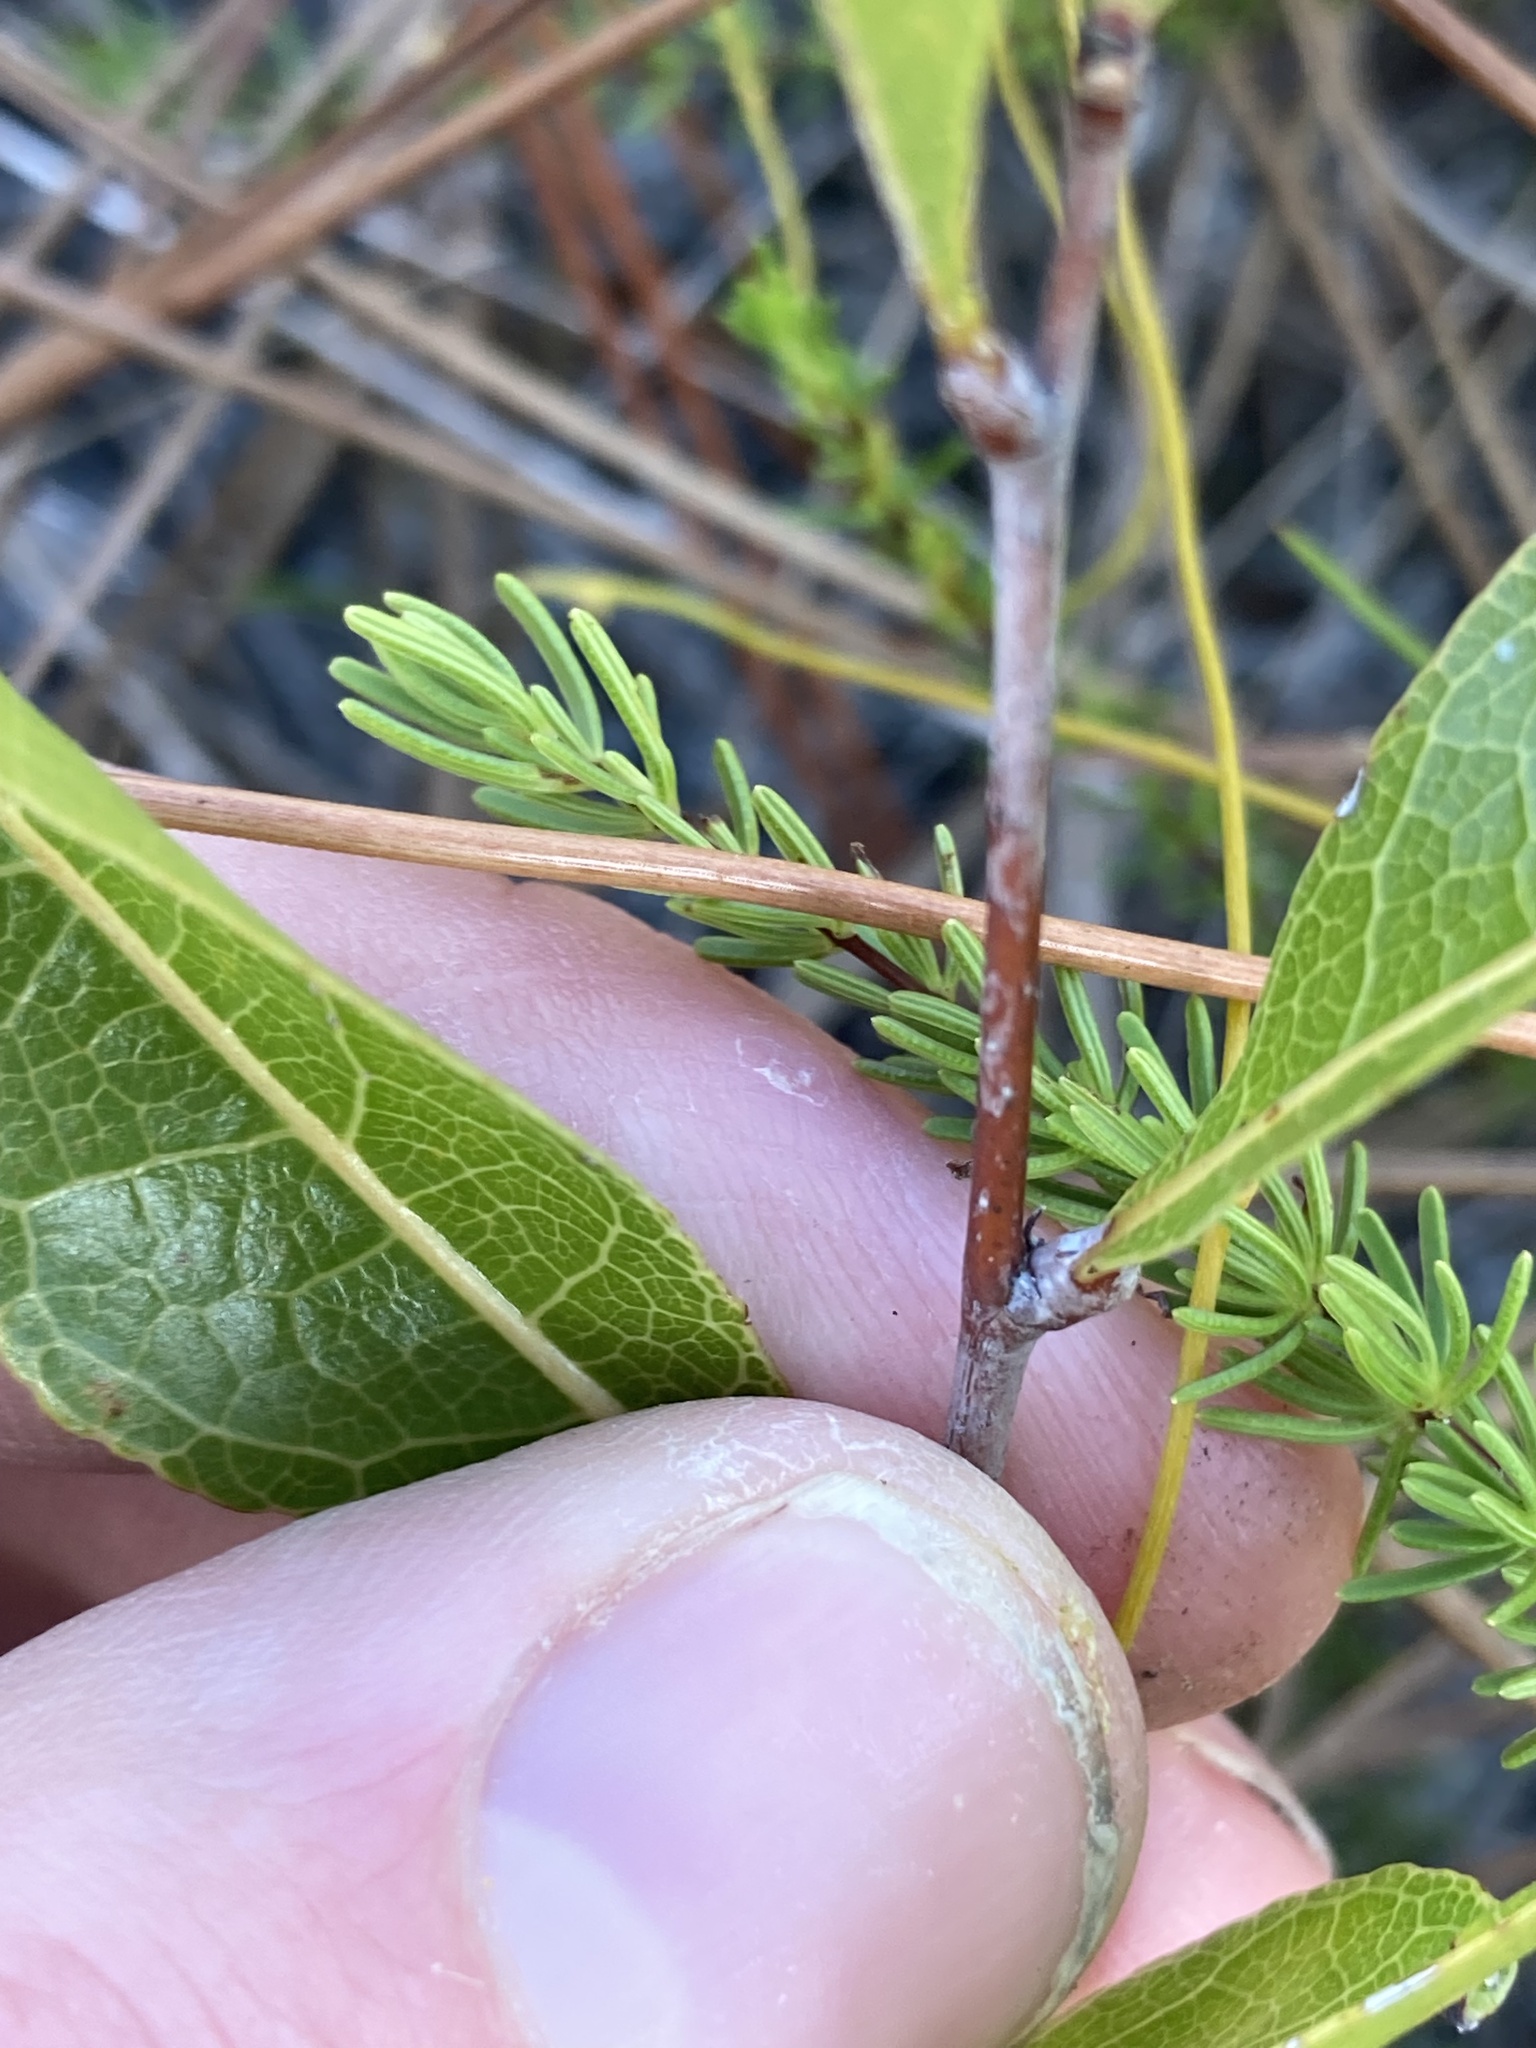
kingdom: Plantae
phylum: Tracheophyta
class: Magnoliopsida
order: Malpighiales
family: Chrysobalanaceae
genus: Geobalanus
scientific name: Geobalanus oblongifolius
